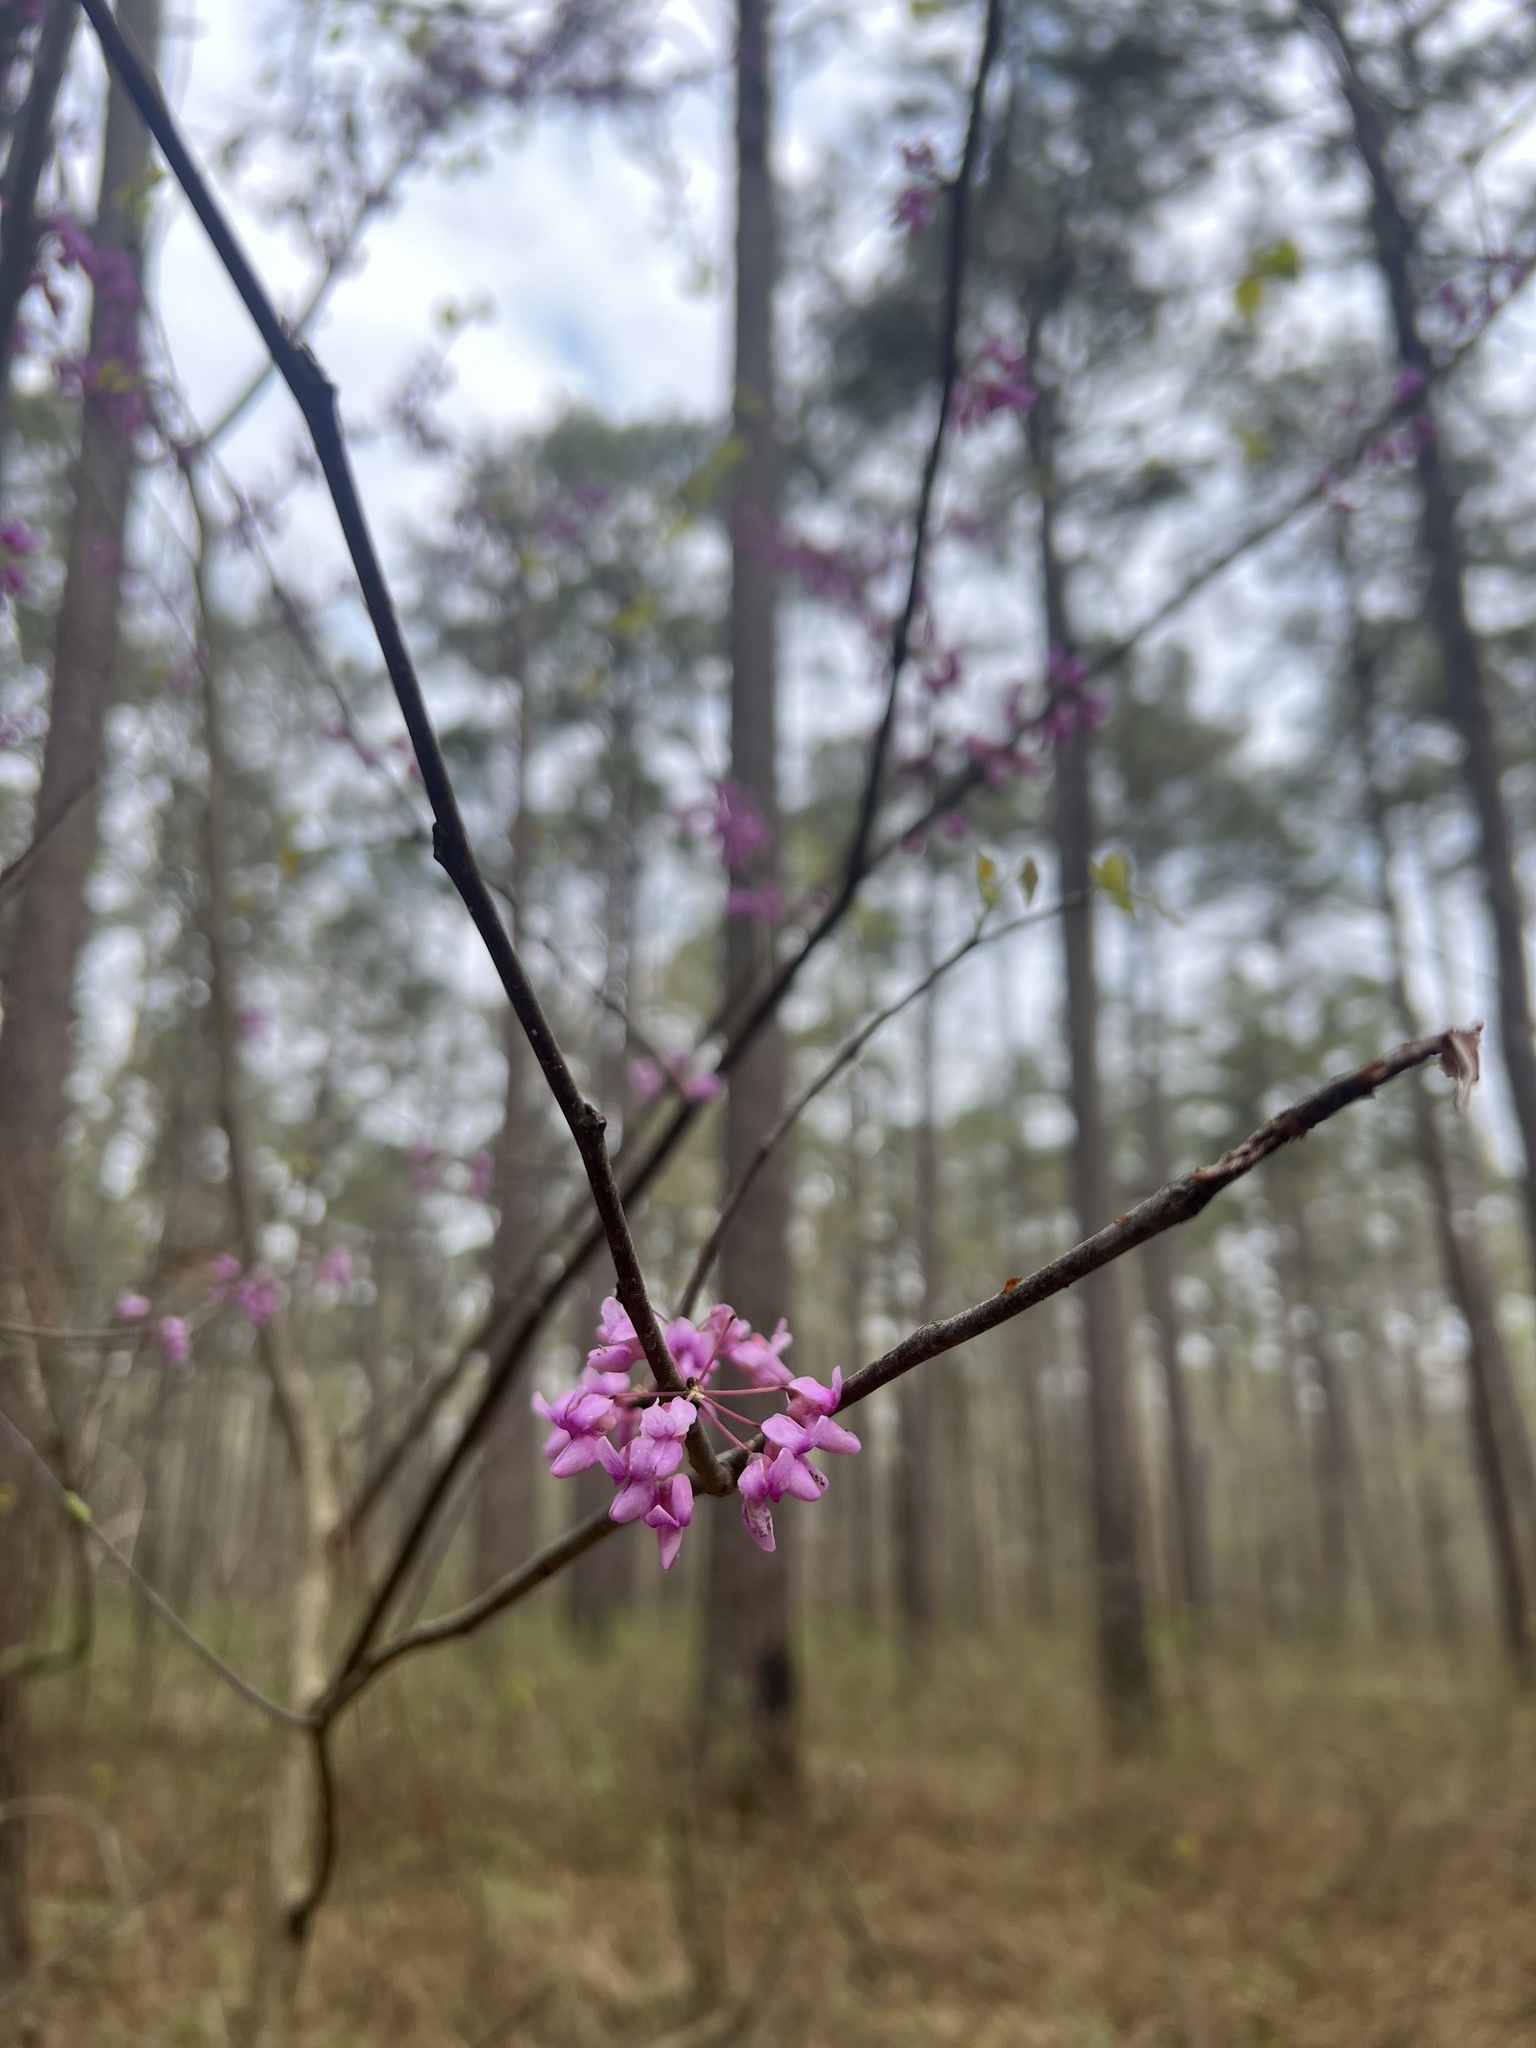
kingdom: Plantae
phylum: Tracheophyta
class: Magnoliopsida
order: Fabales
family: Fabaceae
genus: Cercis
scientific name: Cercis canadensis
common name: Eastern redbud
